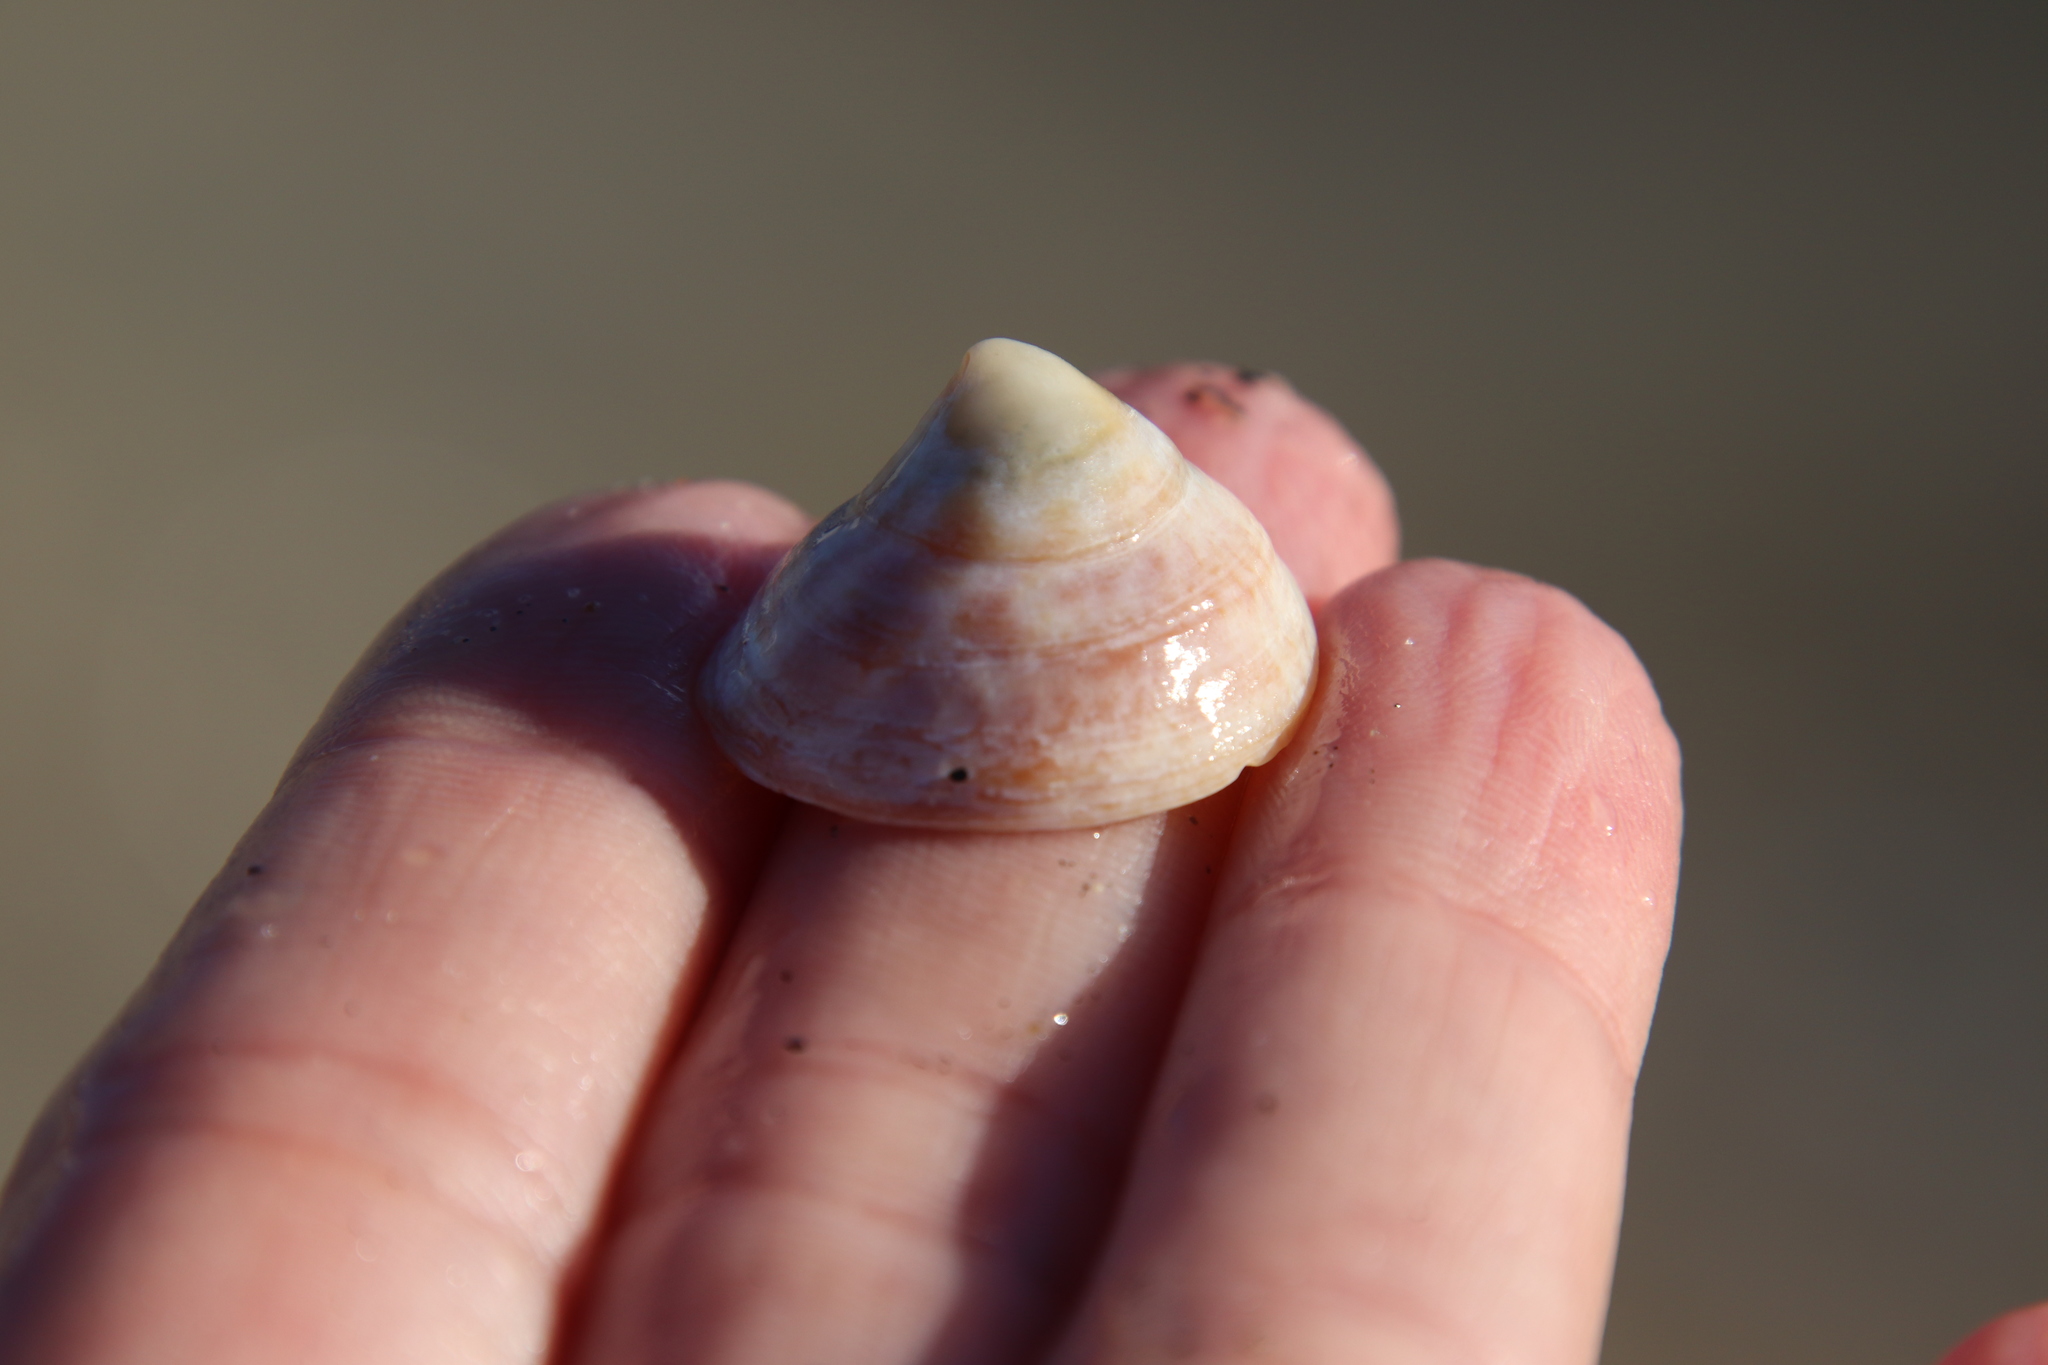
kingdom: Animalia
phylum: Mollusca
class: Gastropoda
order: Littorinimorpha
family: Calyptraeidae
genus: Crucibulum
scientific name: Crucibulum spinosum
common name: Spiny cup-and-saucer
